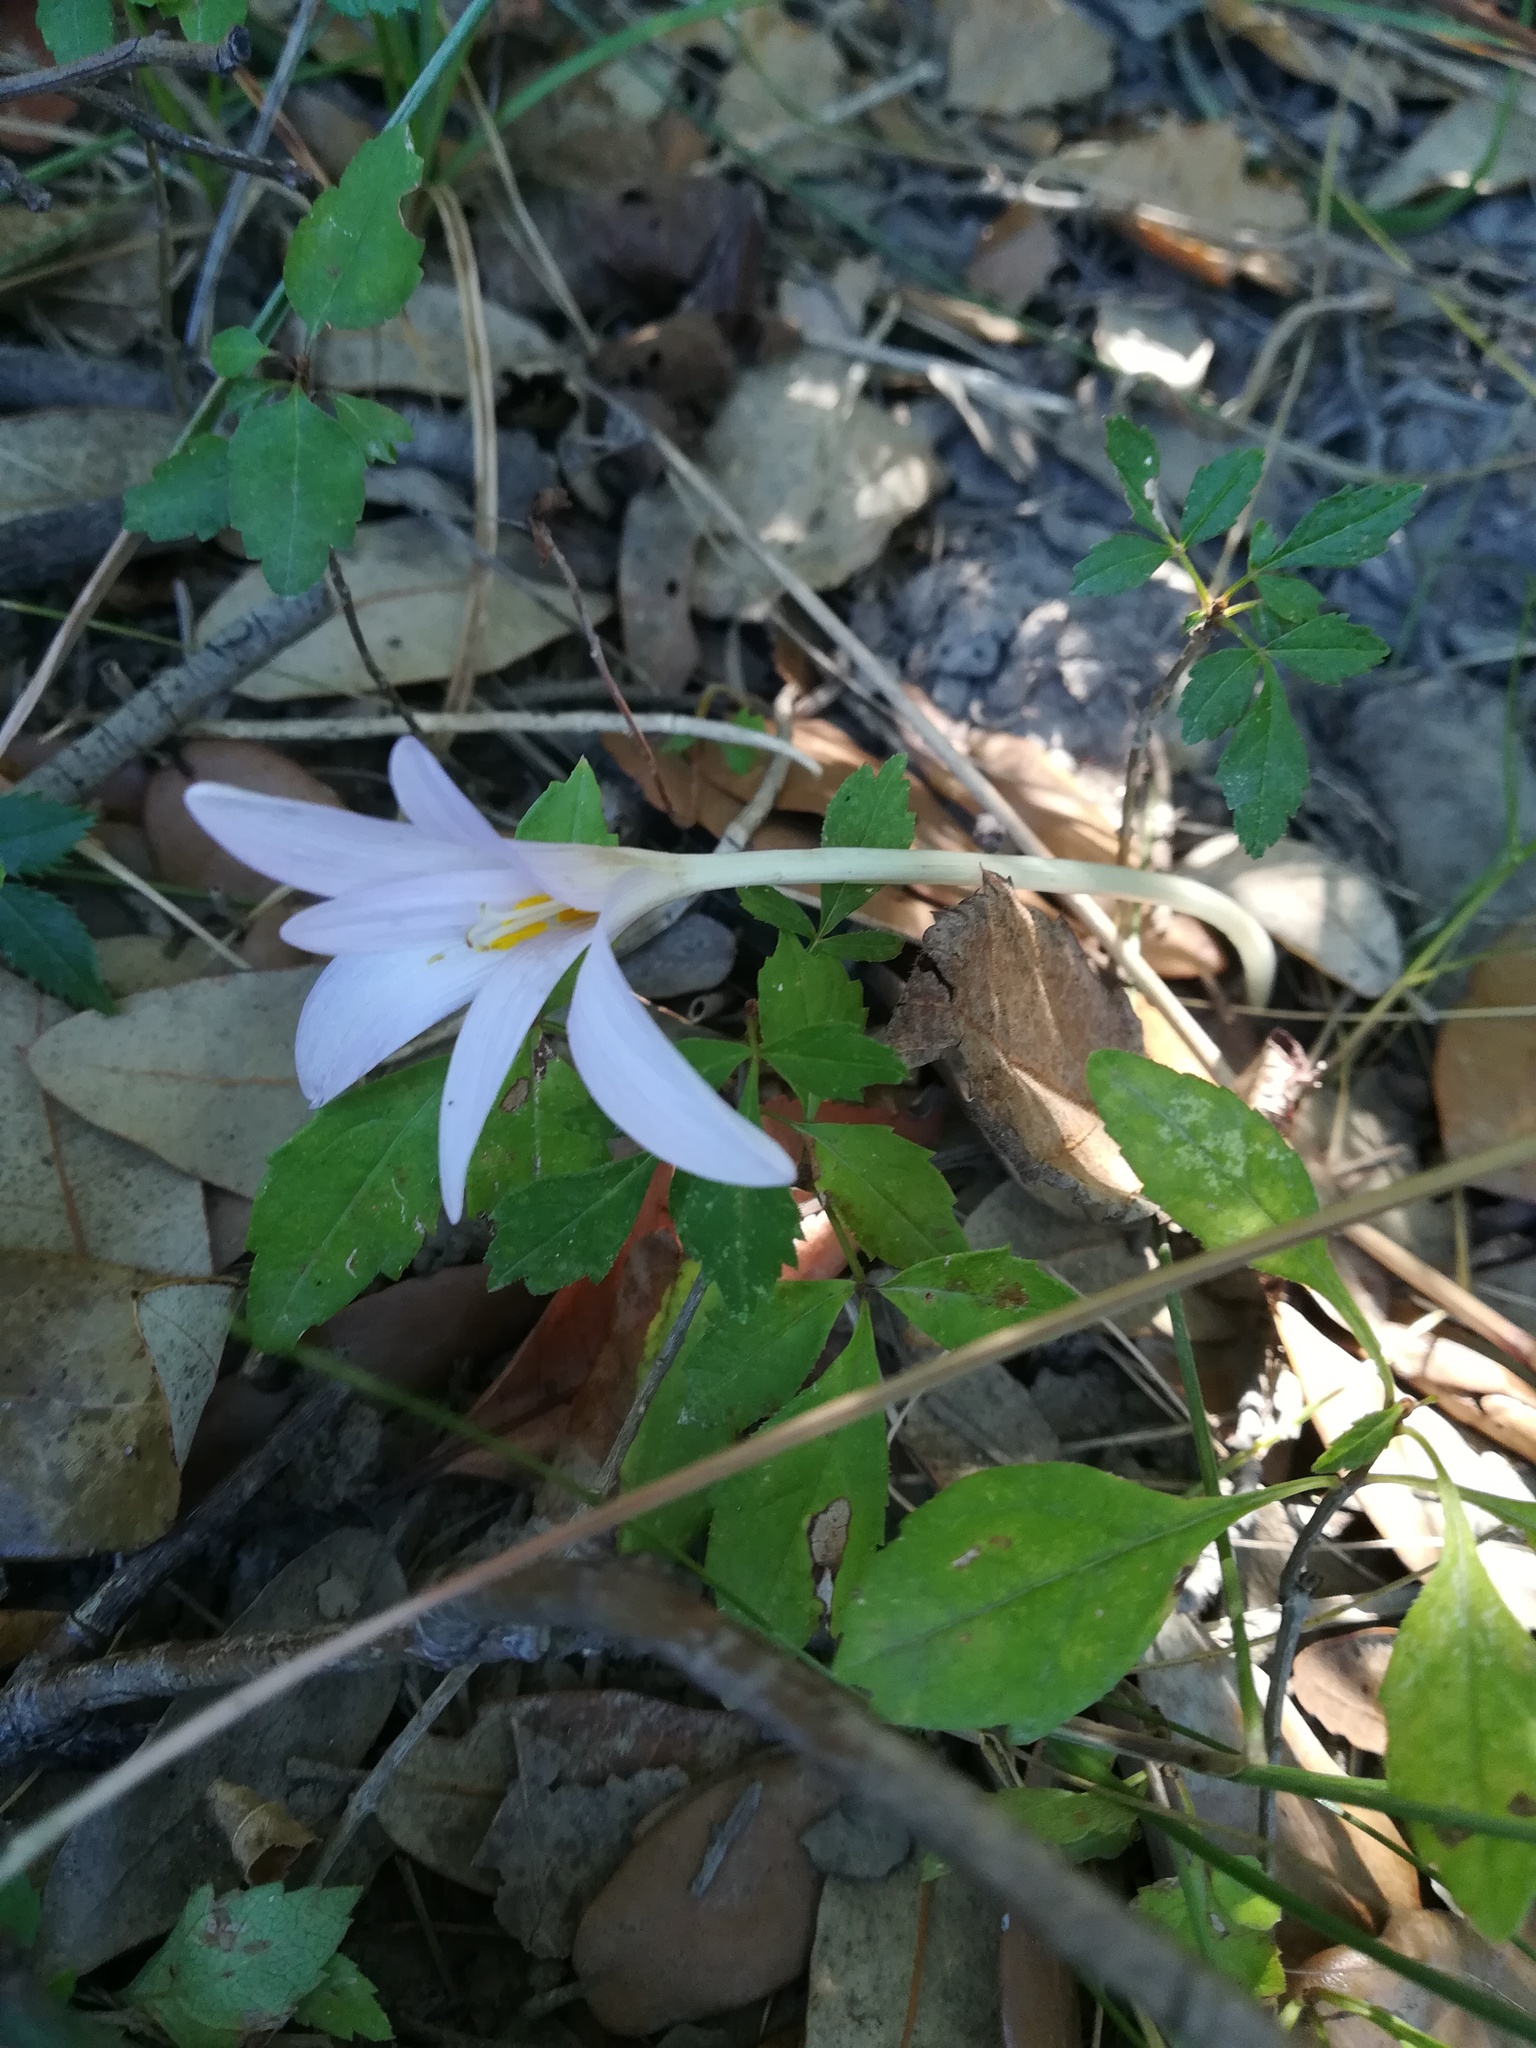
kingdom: Plantae
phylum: Tracheophyta
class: Liliopsida
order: Liliales
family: Colchicaceae
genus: Colchicum
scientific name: Colchicum autumnale
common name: Autumn crocus
